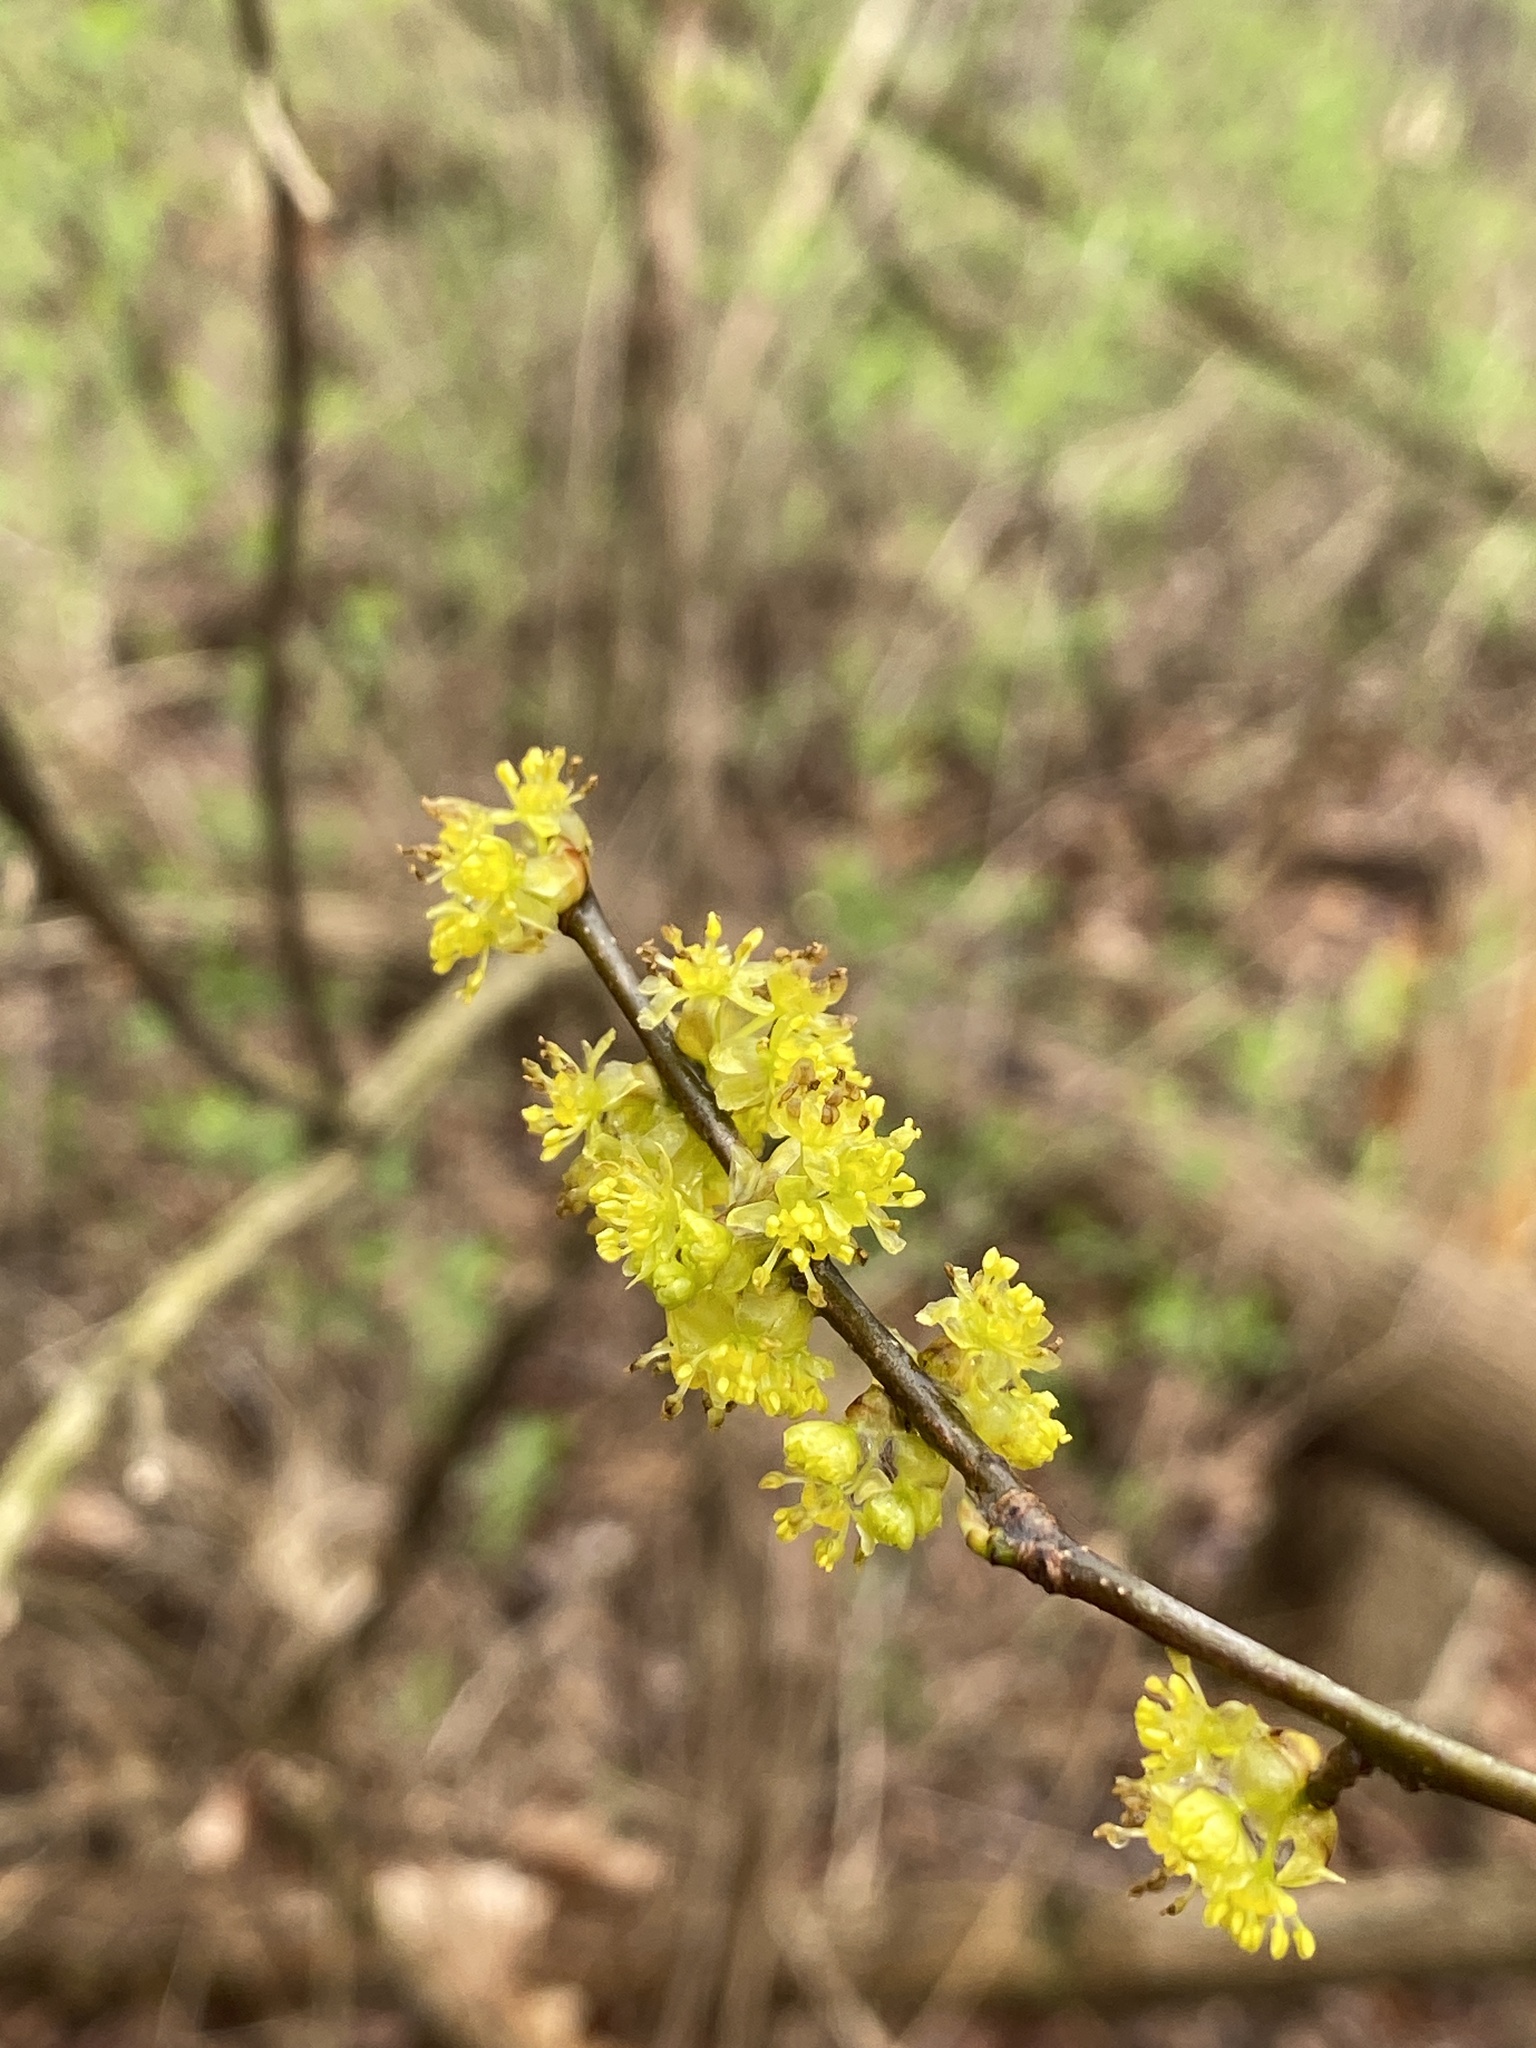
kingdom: Plantae
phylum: Tracheophyta
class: Magnoliopsida
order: Laurales
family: Lauraceae
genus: Lindera
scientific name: Lindera benzoin
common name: Spicebush
